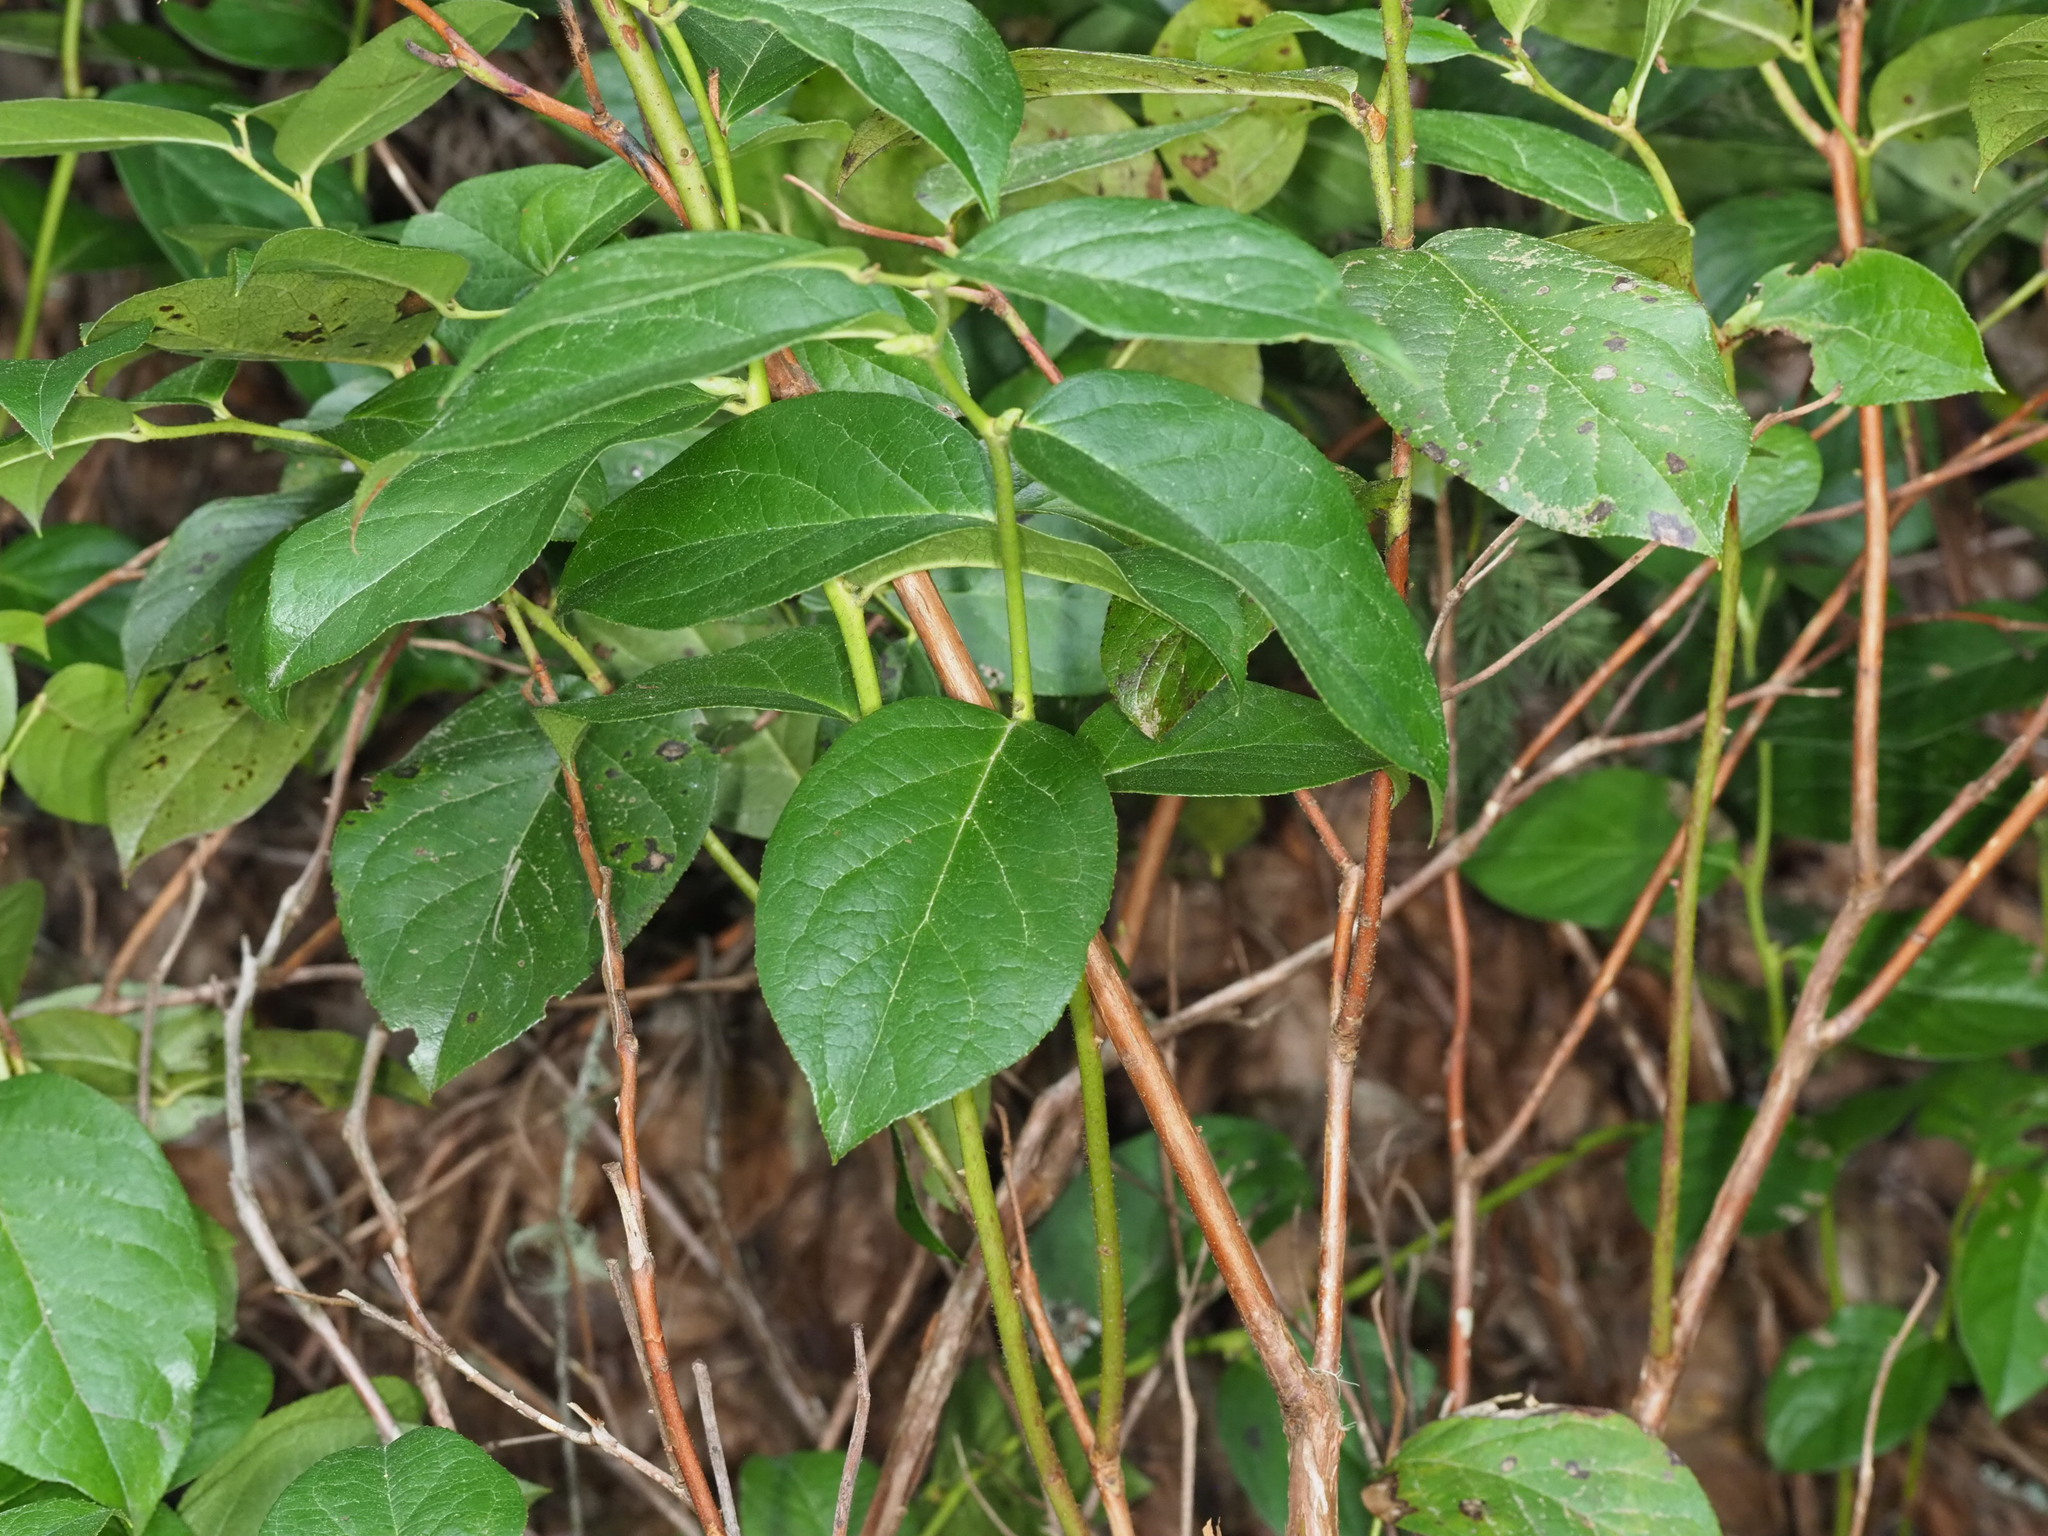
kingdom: Plantae
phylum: Tracheophyta
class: Magnoliopsida
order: Ericales
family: Ericaceae
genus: Gaultheria
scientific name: Gaultheria shallon
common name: Shallon
